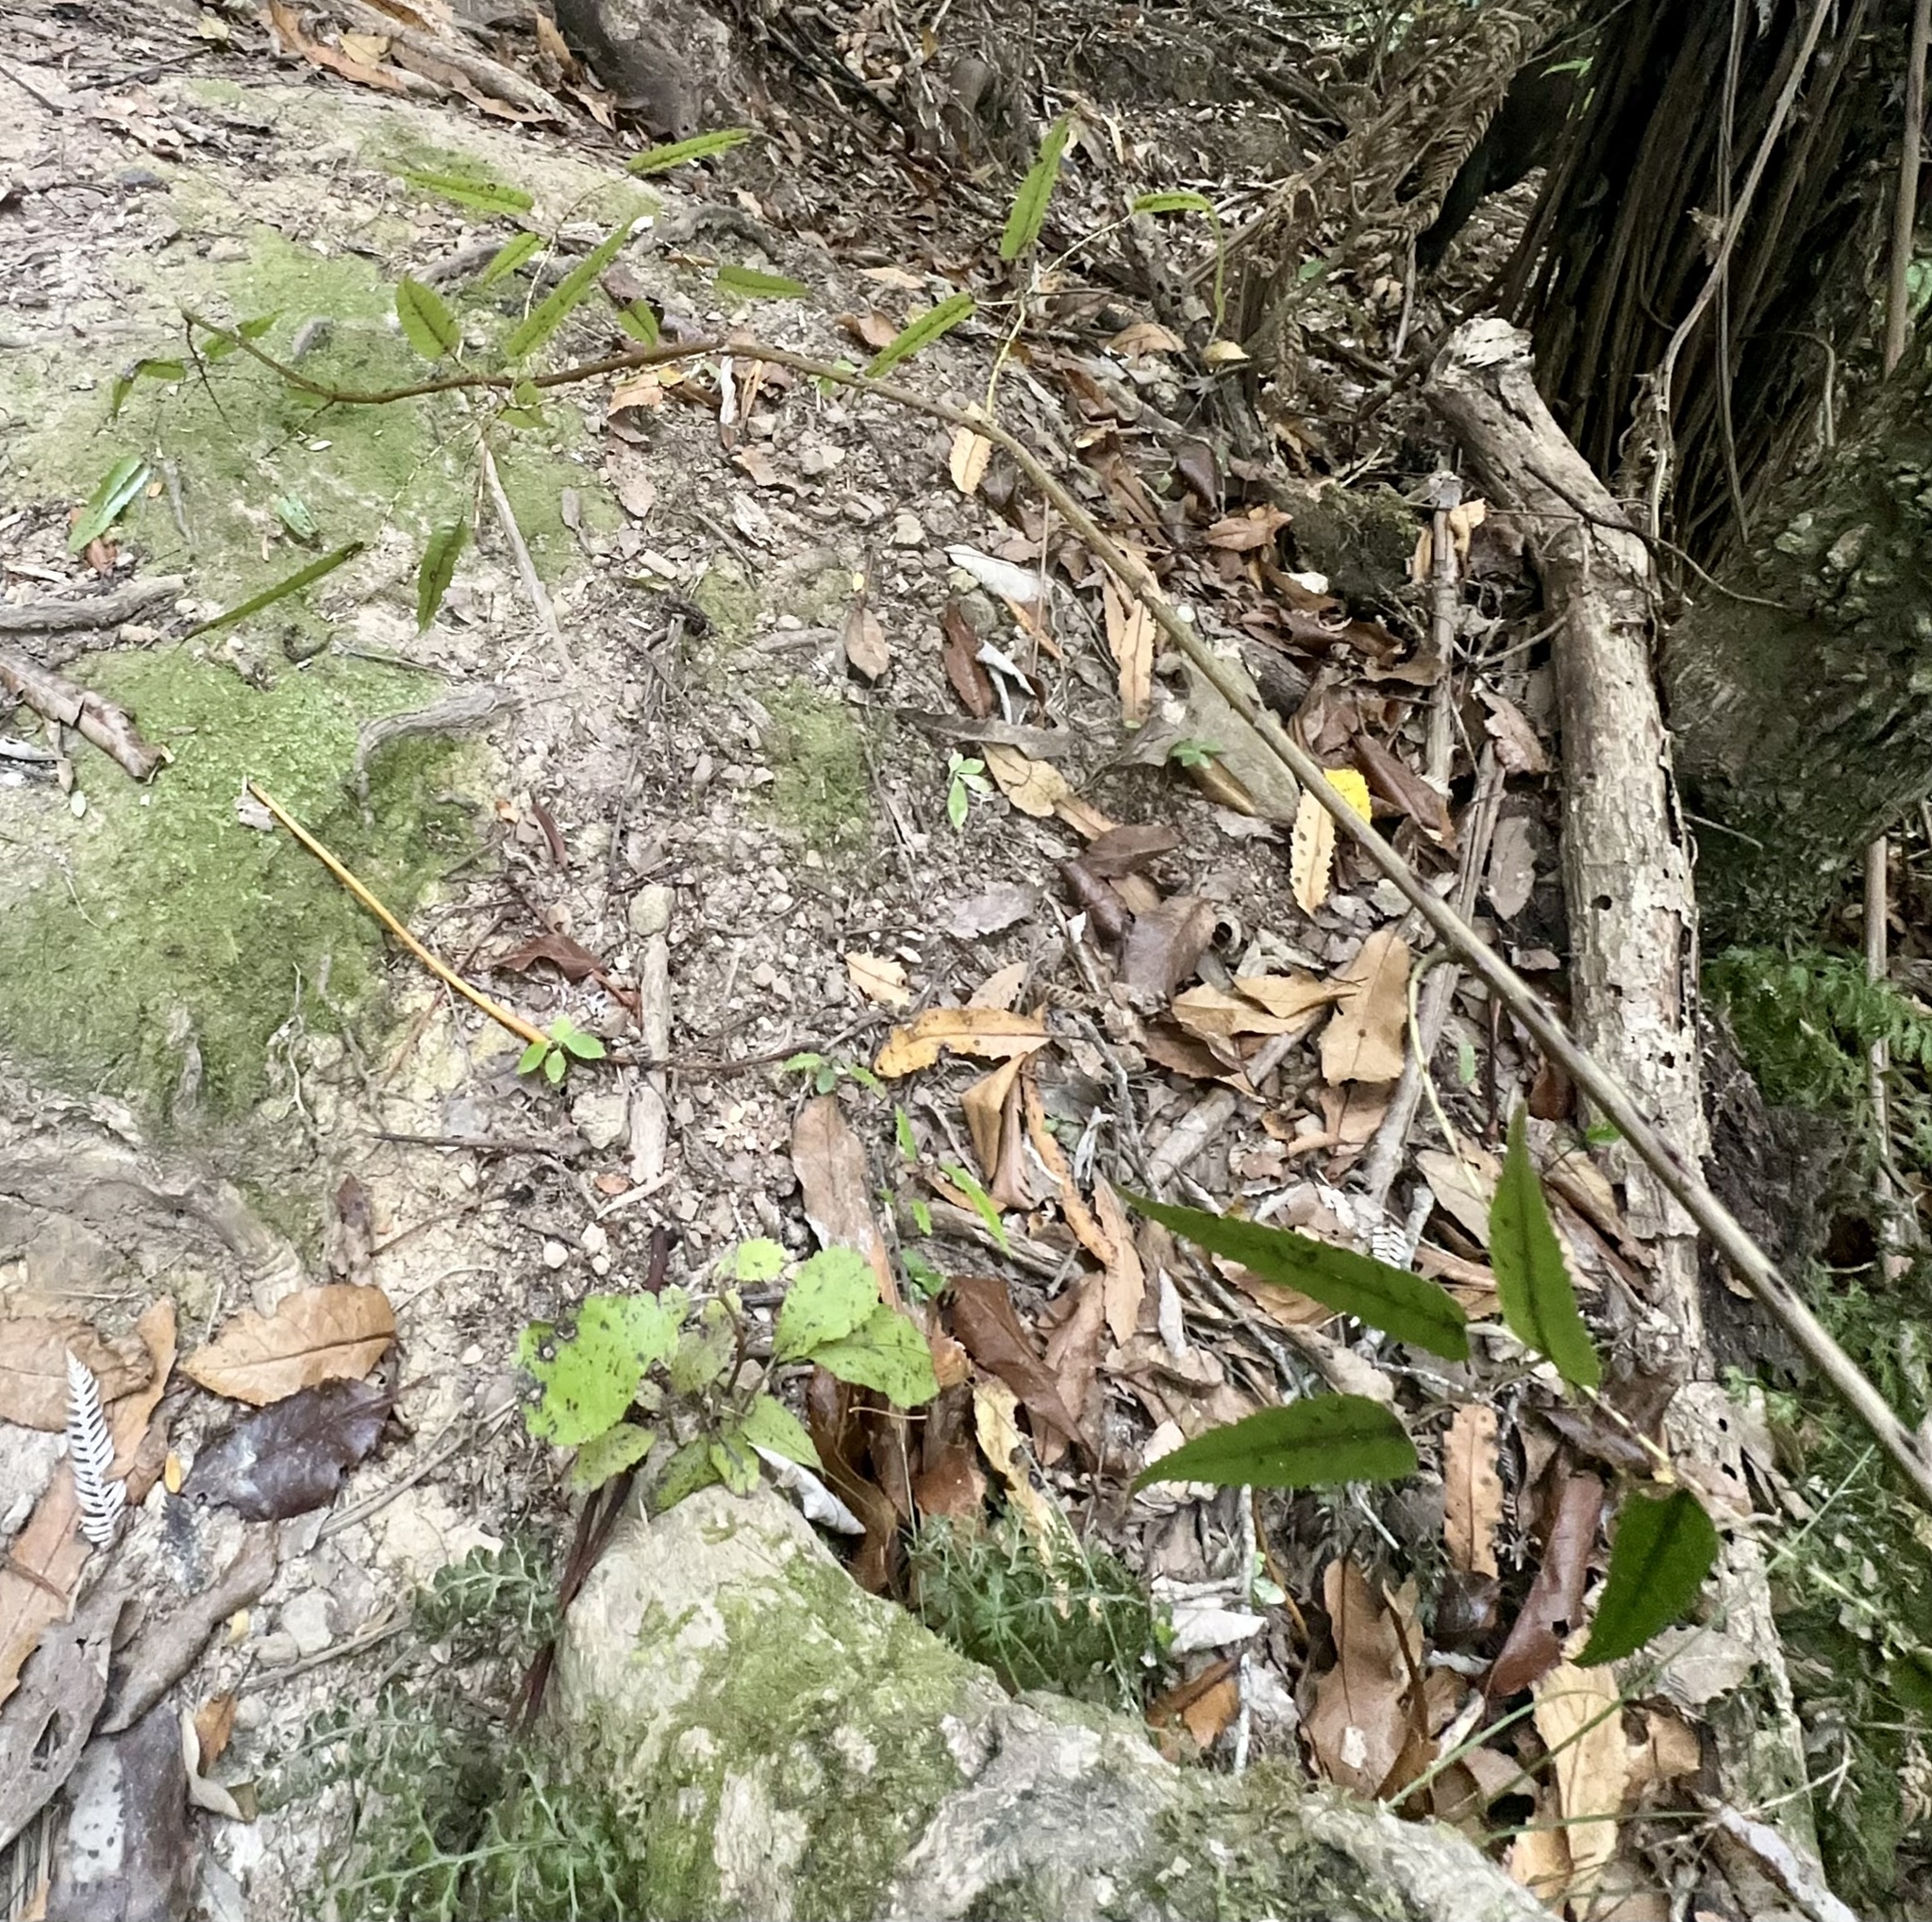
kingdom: Plantae
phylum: Tracheophyta
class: Magnoliopsida
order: Rosales
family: Rosaceae
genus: Rubus
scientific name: Rubus cissoides
